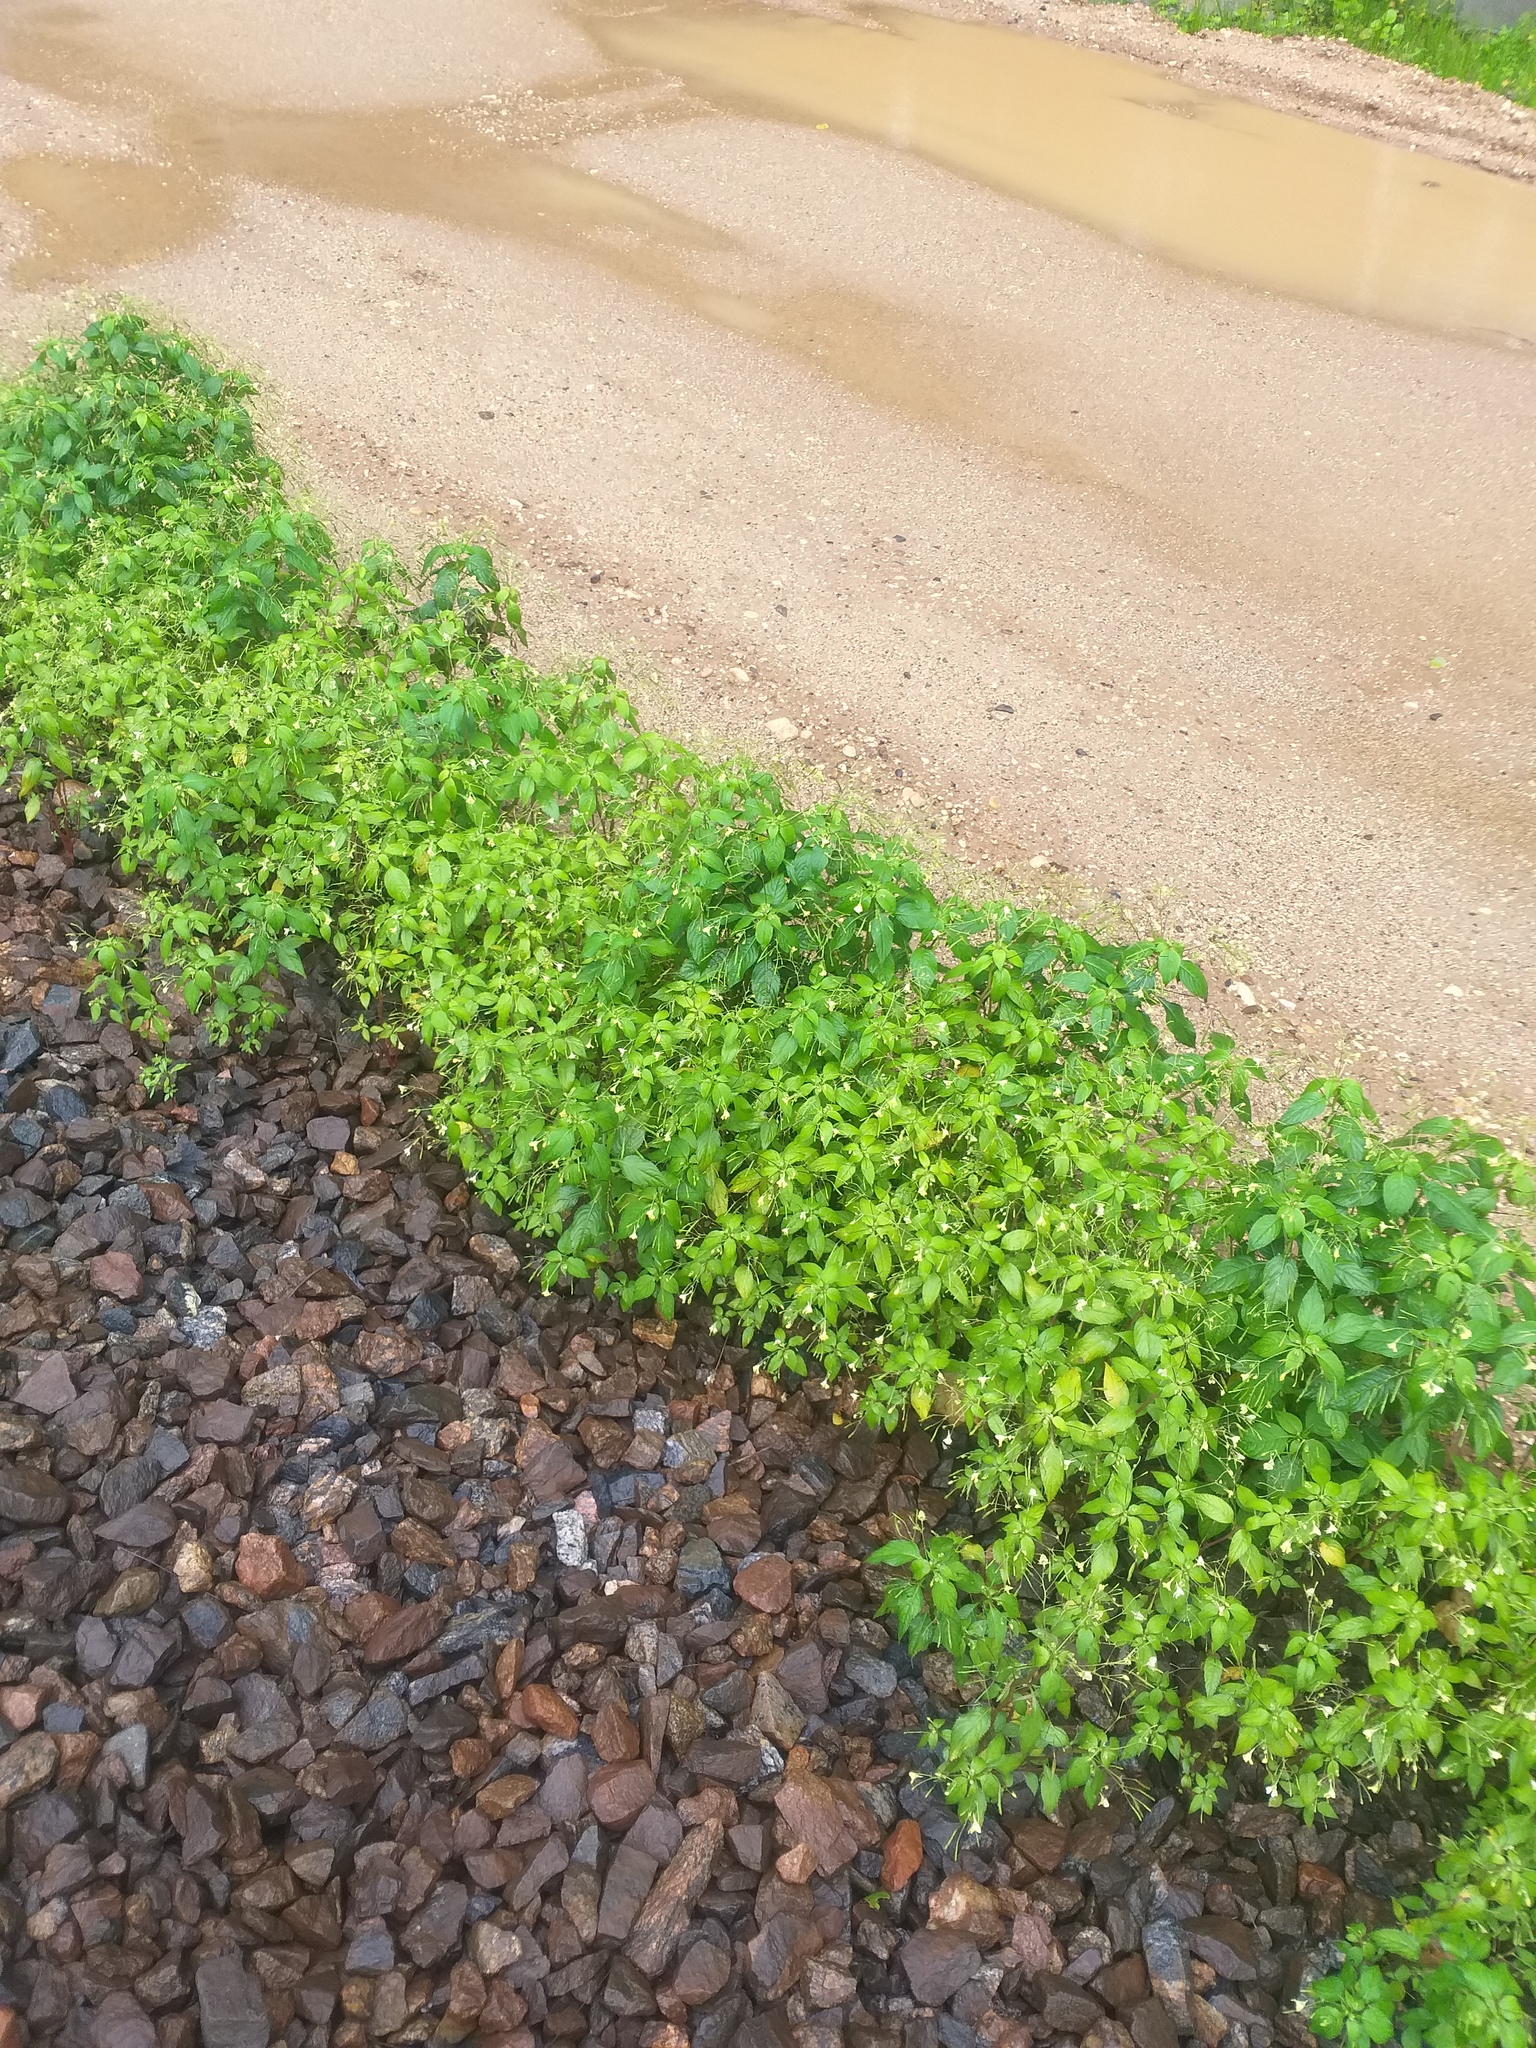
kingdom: Plantae
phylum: Tracheophyta
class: Magnoliopsida
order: Ericales
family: Balsaminaceae
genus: Impatiens
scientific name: Impatiens parviflora
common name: Small balsam
